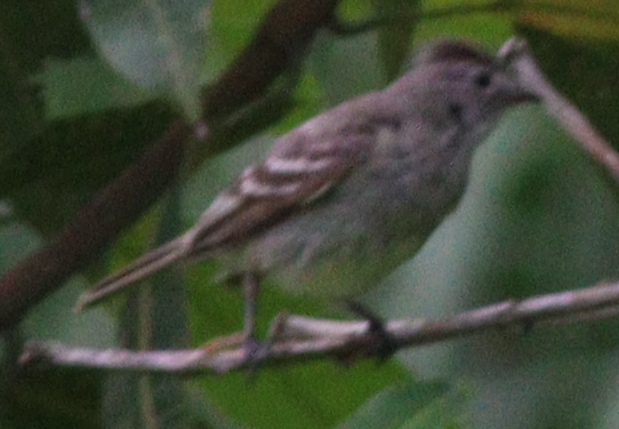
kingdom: Animalia
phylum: Chordata
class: Aves
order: Passeriformes
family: Tyrannidae
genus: Camptostoma
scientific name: Camptostoma obsoletum
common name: Southern beardless-tyrannulet
